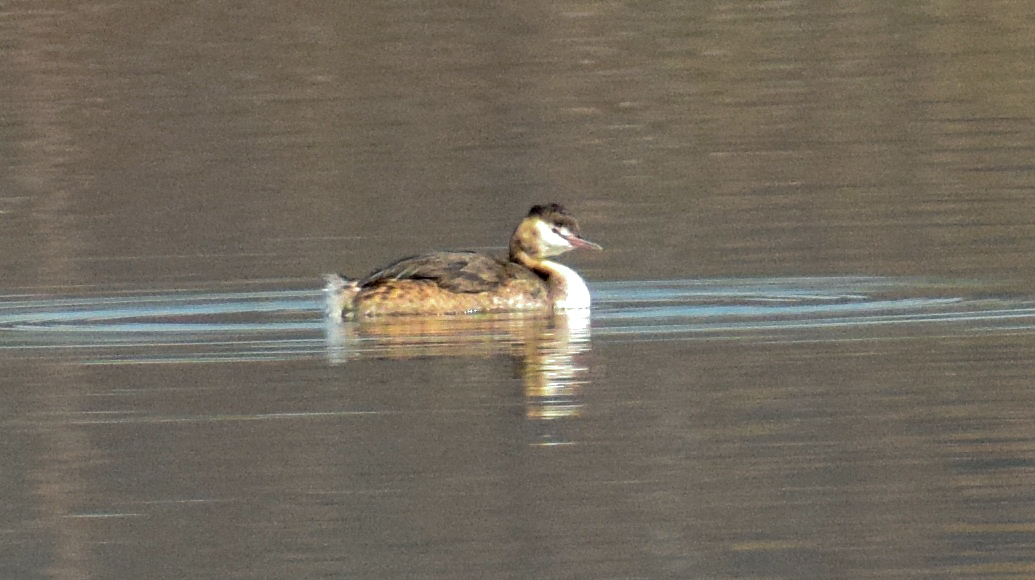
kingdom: Animalia
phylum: Chordata
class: Aves
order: Podicipediformes
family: Podicipedidae
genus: Podiceps
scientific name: Podiceps cristatus
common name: Great crested grebe
